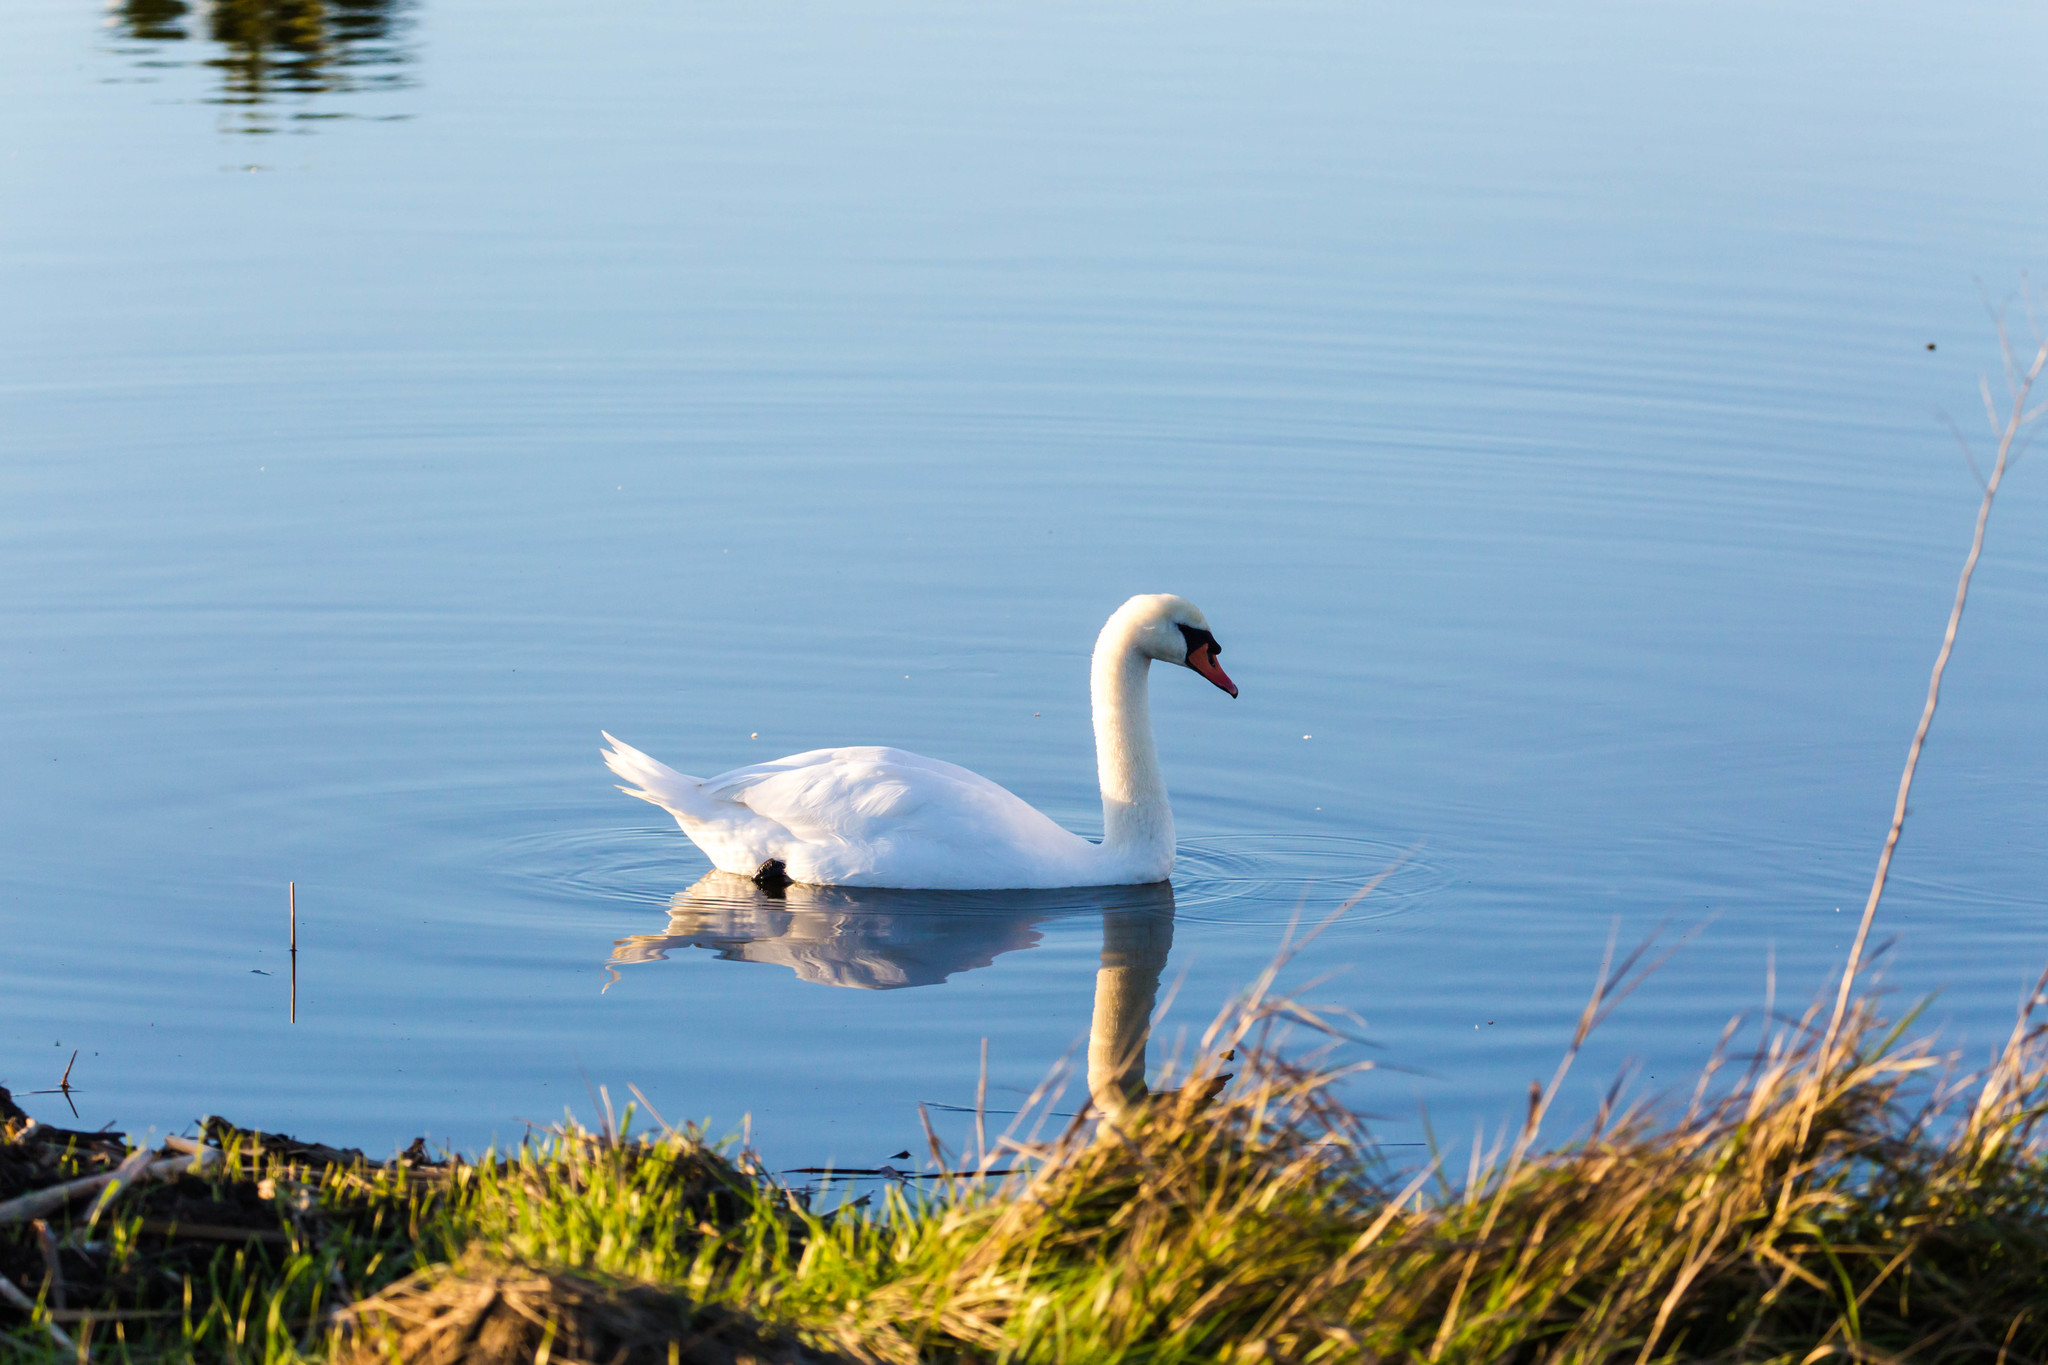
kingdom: Animalia
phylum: Chordata
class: Aves
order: Anseriformes
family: Anatidae
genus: Cygnus
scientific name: Cygnus olor
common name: Mute swan
